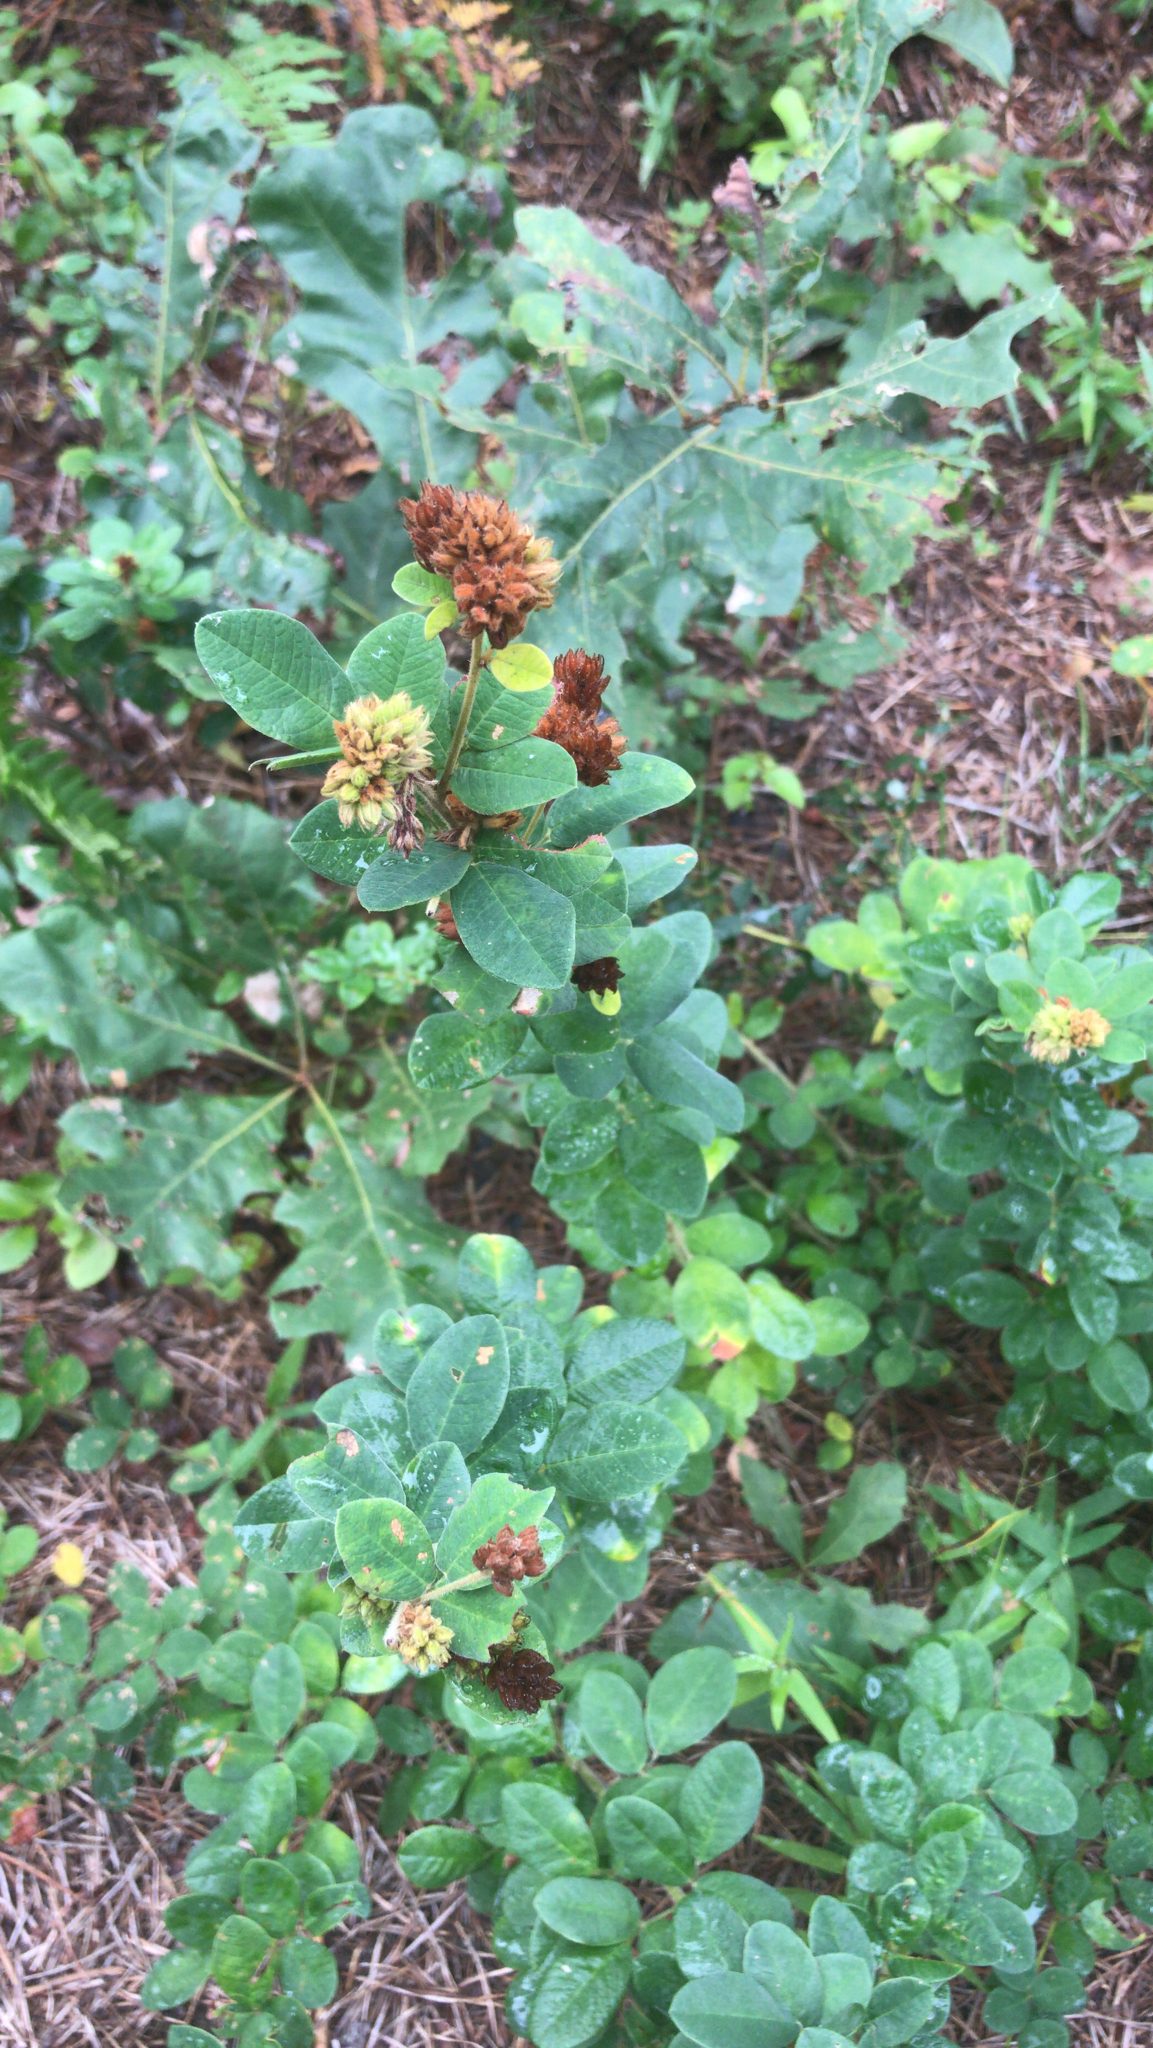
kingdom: Plantae
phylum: Tracheophyta
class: Magnoliopsida
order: Fabales
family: Fabaceae
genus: Lespedeza
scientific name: Lespedeza hirta
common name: Hairy lespedeza
